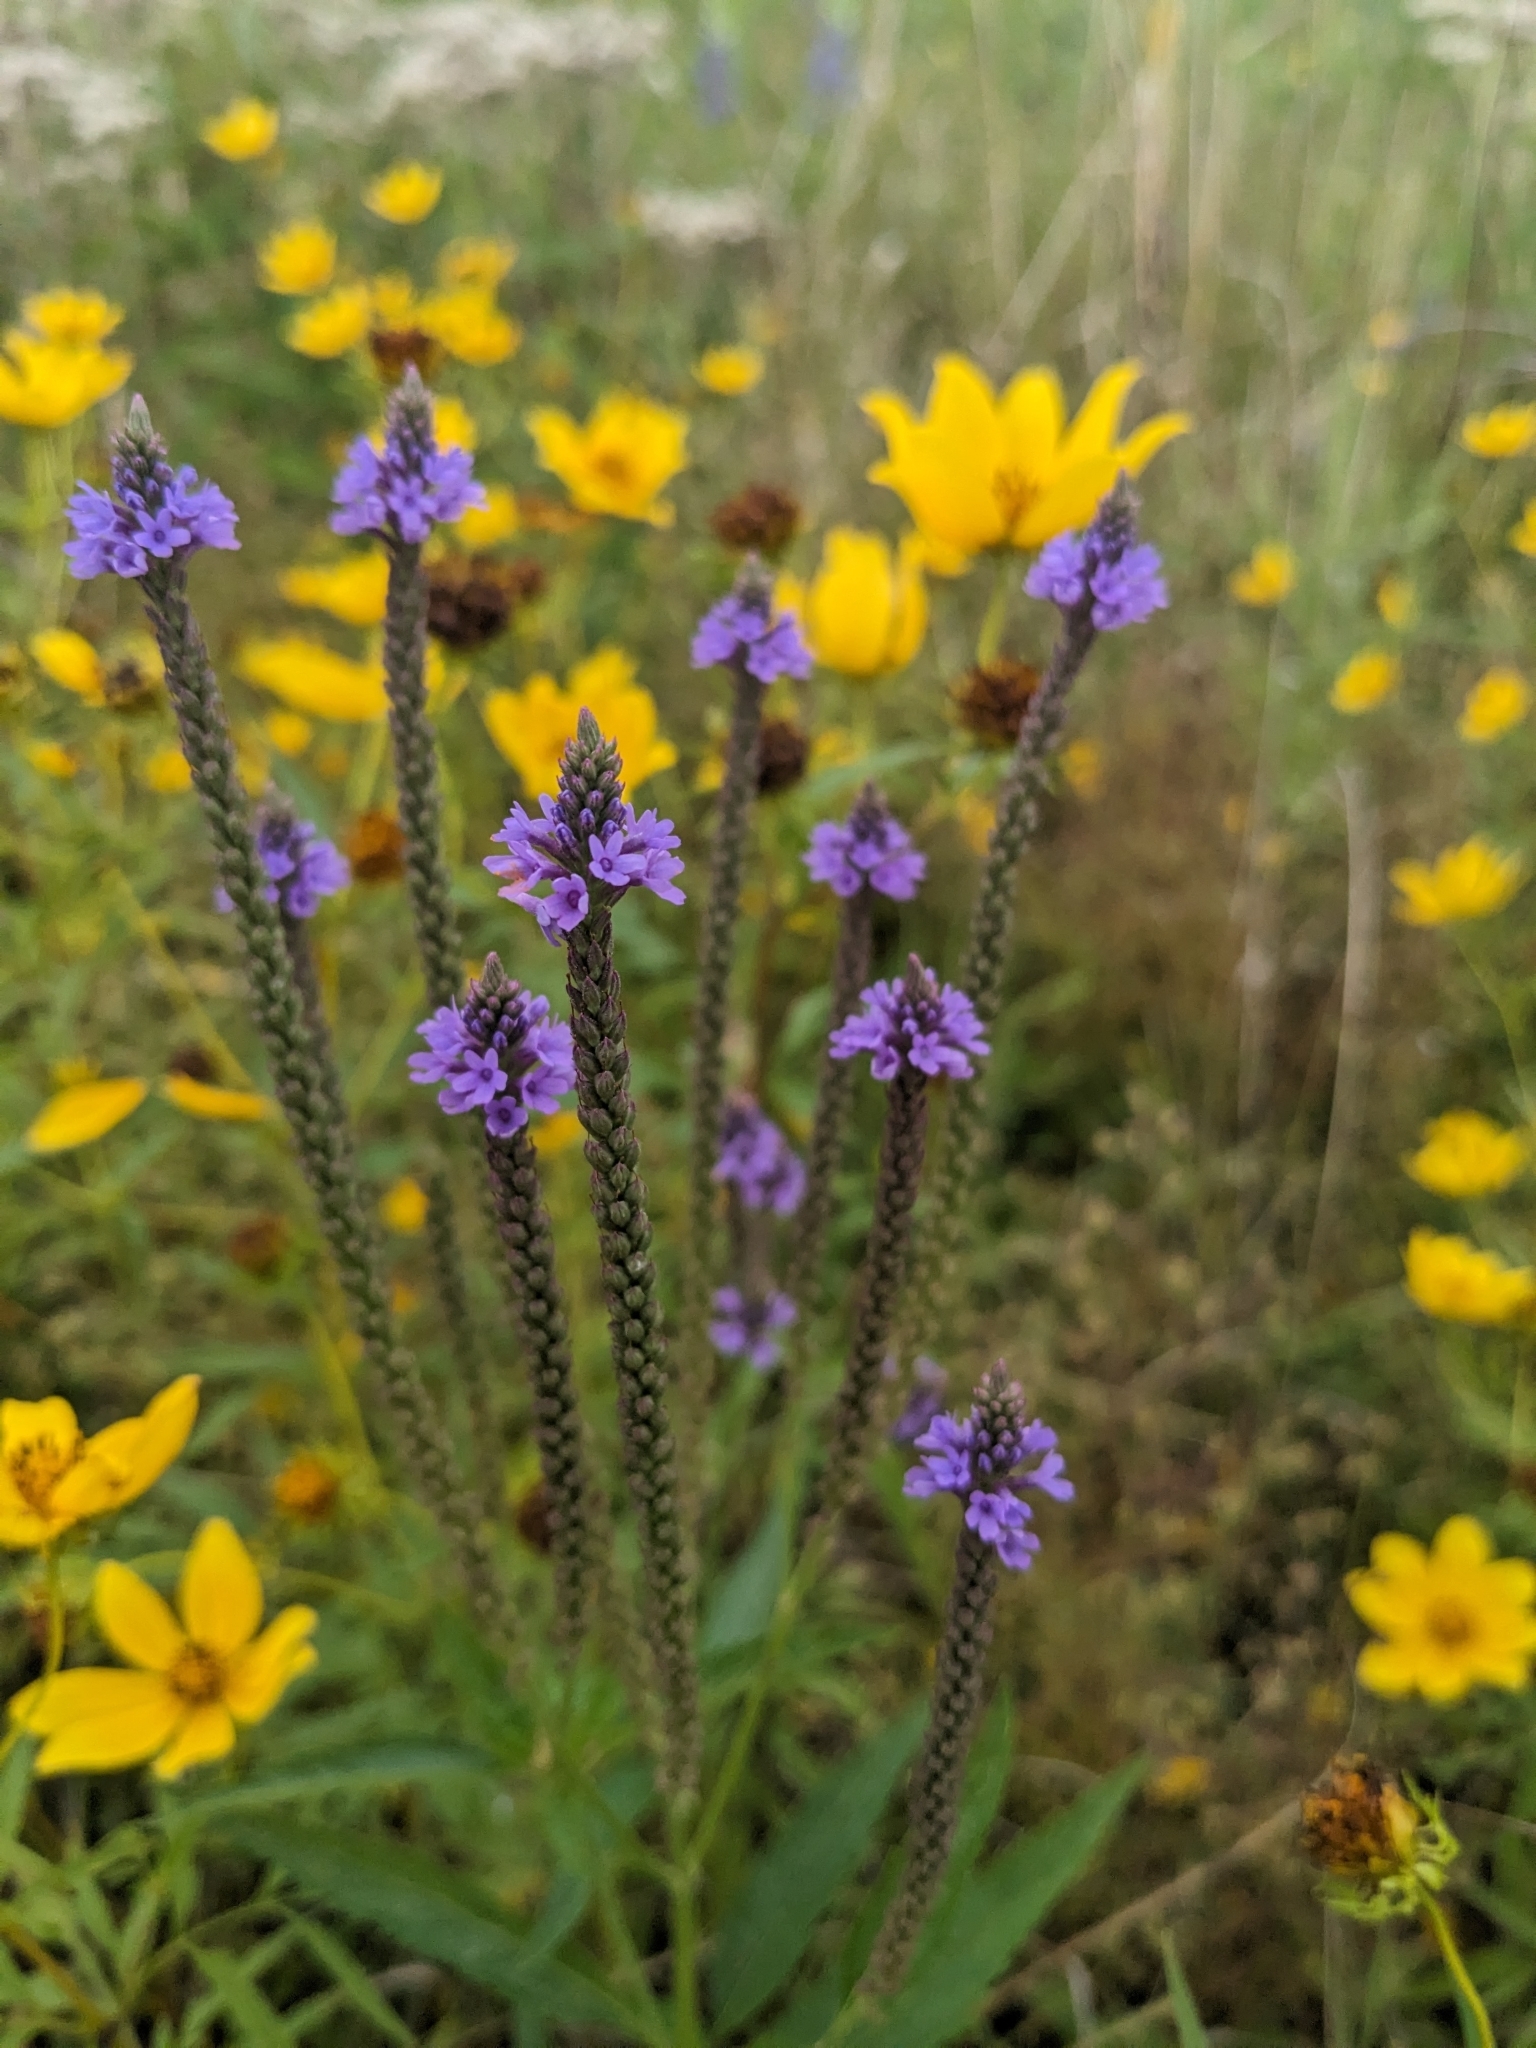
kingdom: Plantae
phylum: Tracheophyta
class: Magnoliopsida
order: Lamiales
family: Verbenaceae
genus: Verbena
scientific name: Verbena hastata
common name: American blue vervain
